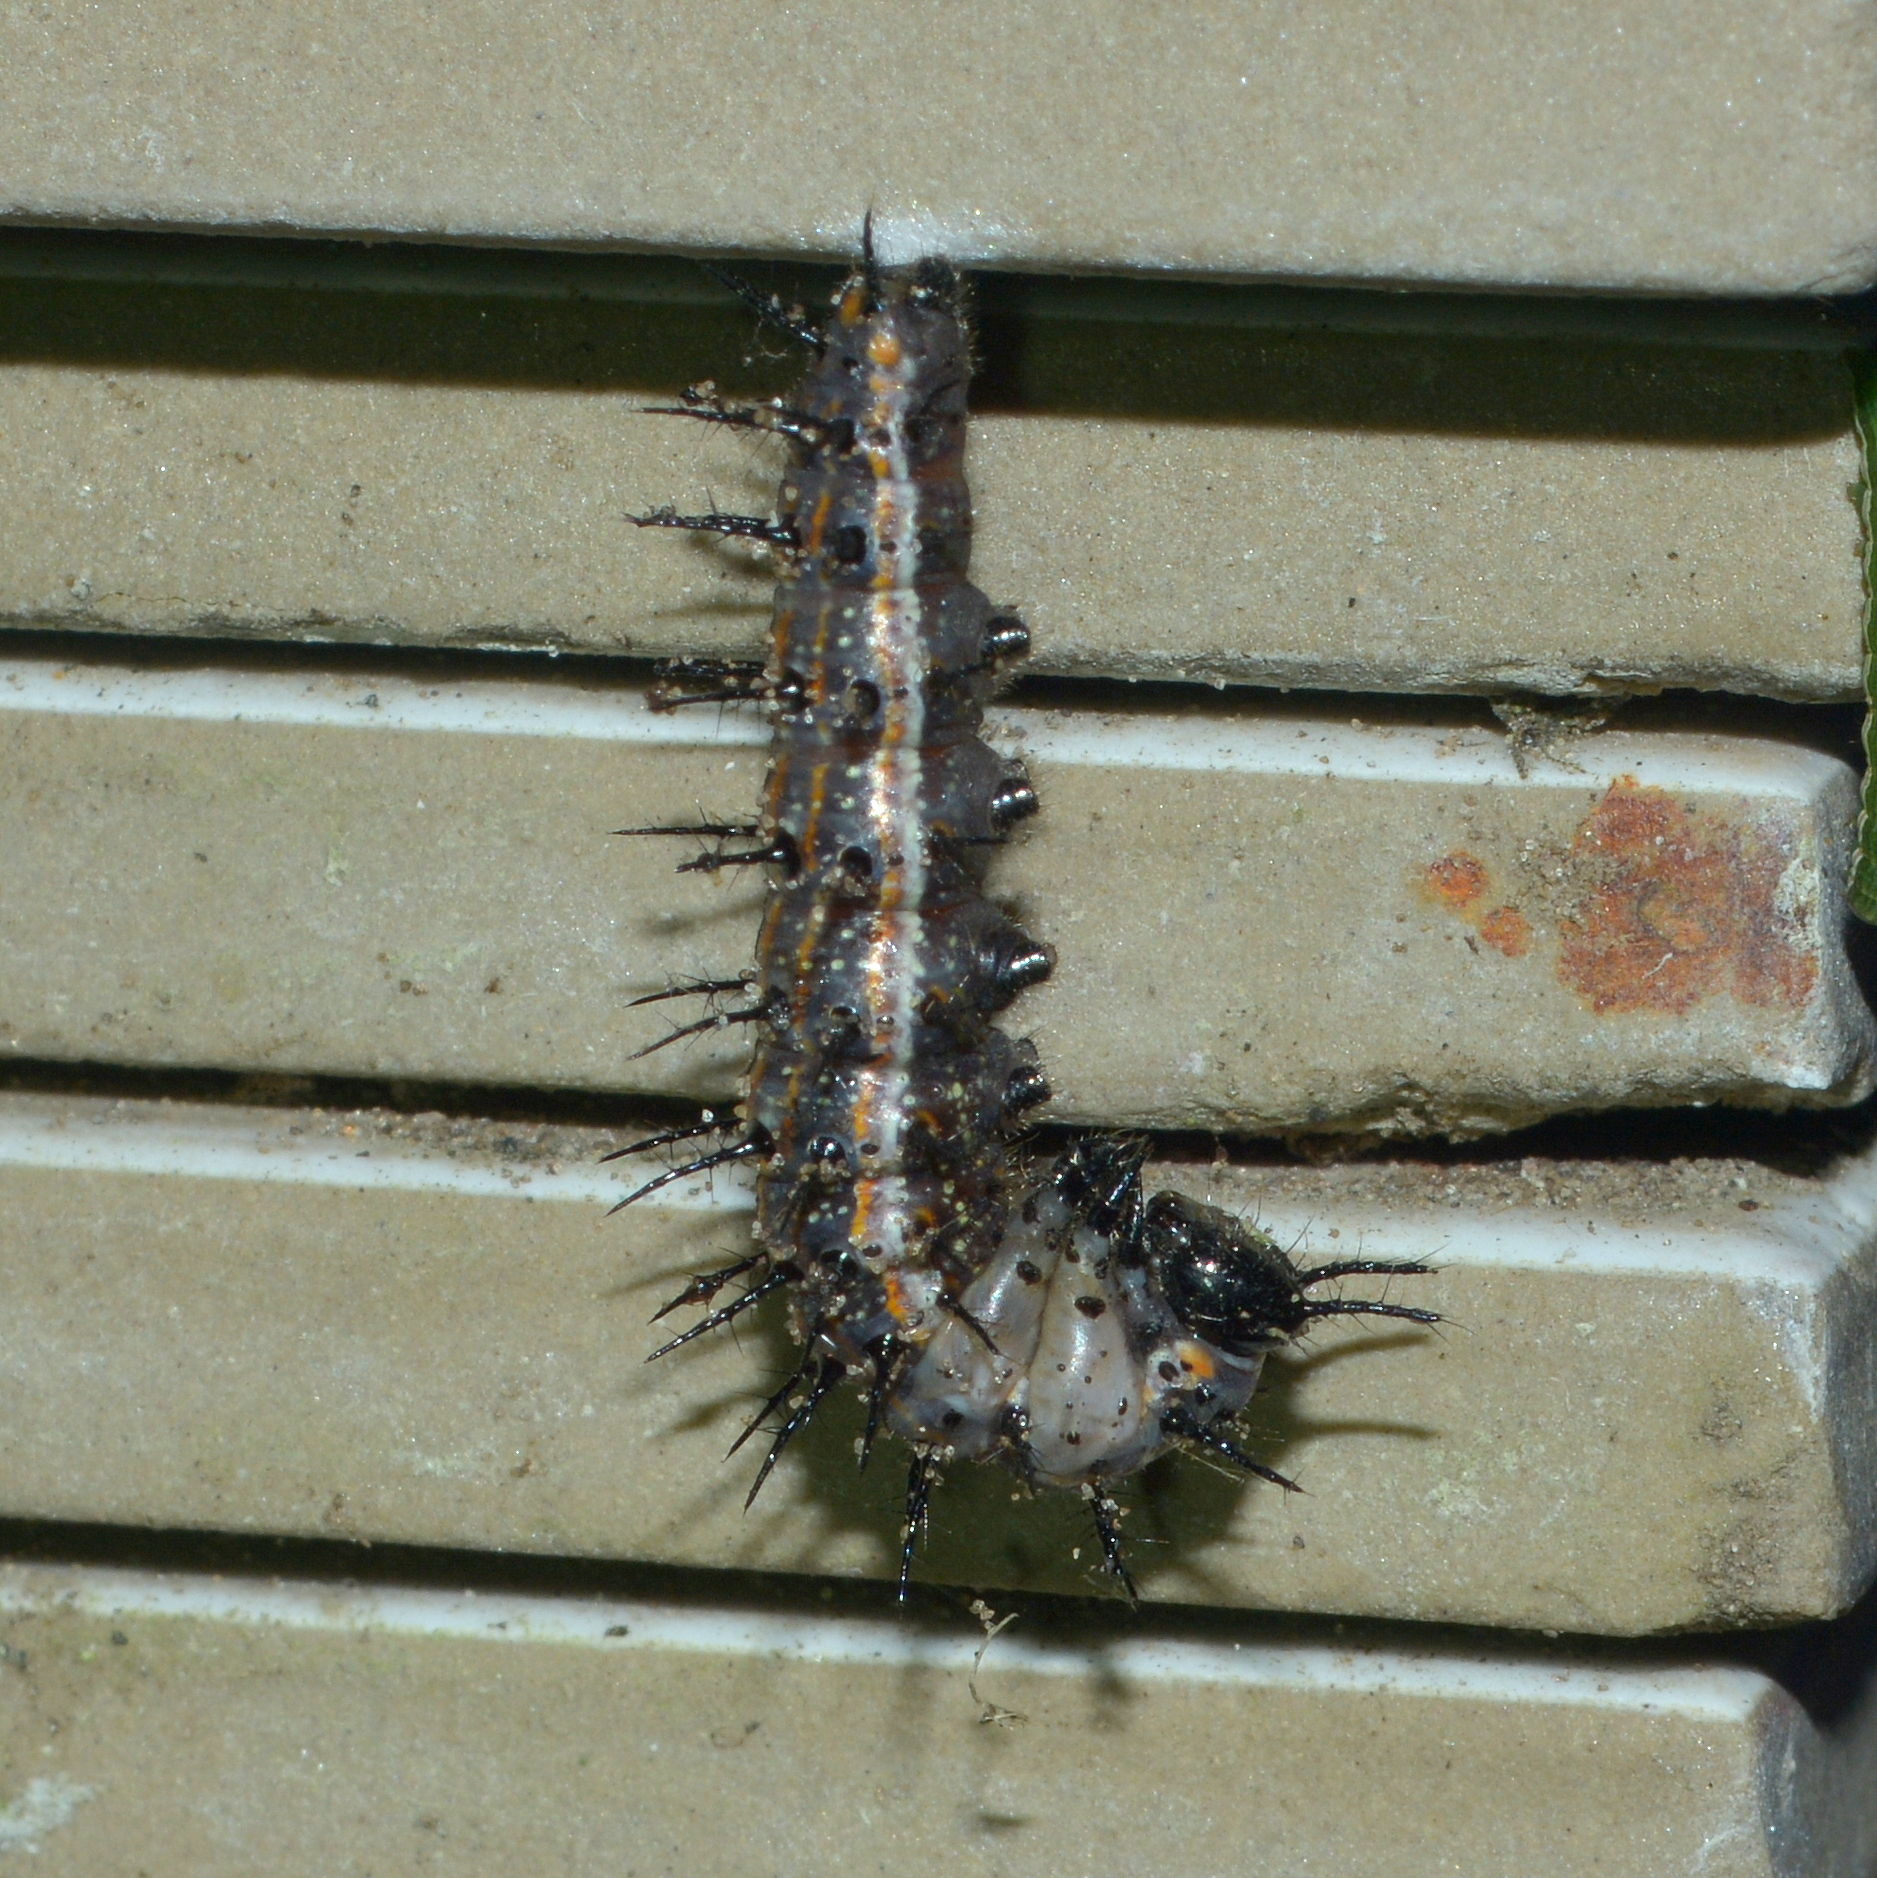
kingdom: Animalia
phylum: Arthropoda
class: Insecta
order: Lepidoptera
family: Nymphalidae
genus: Dione
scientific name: Dione vanillae
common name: Gulf fritillary
